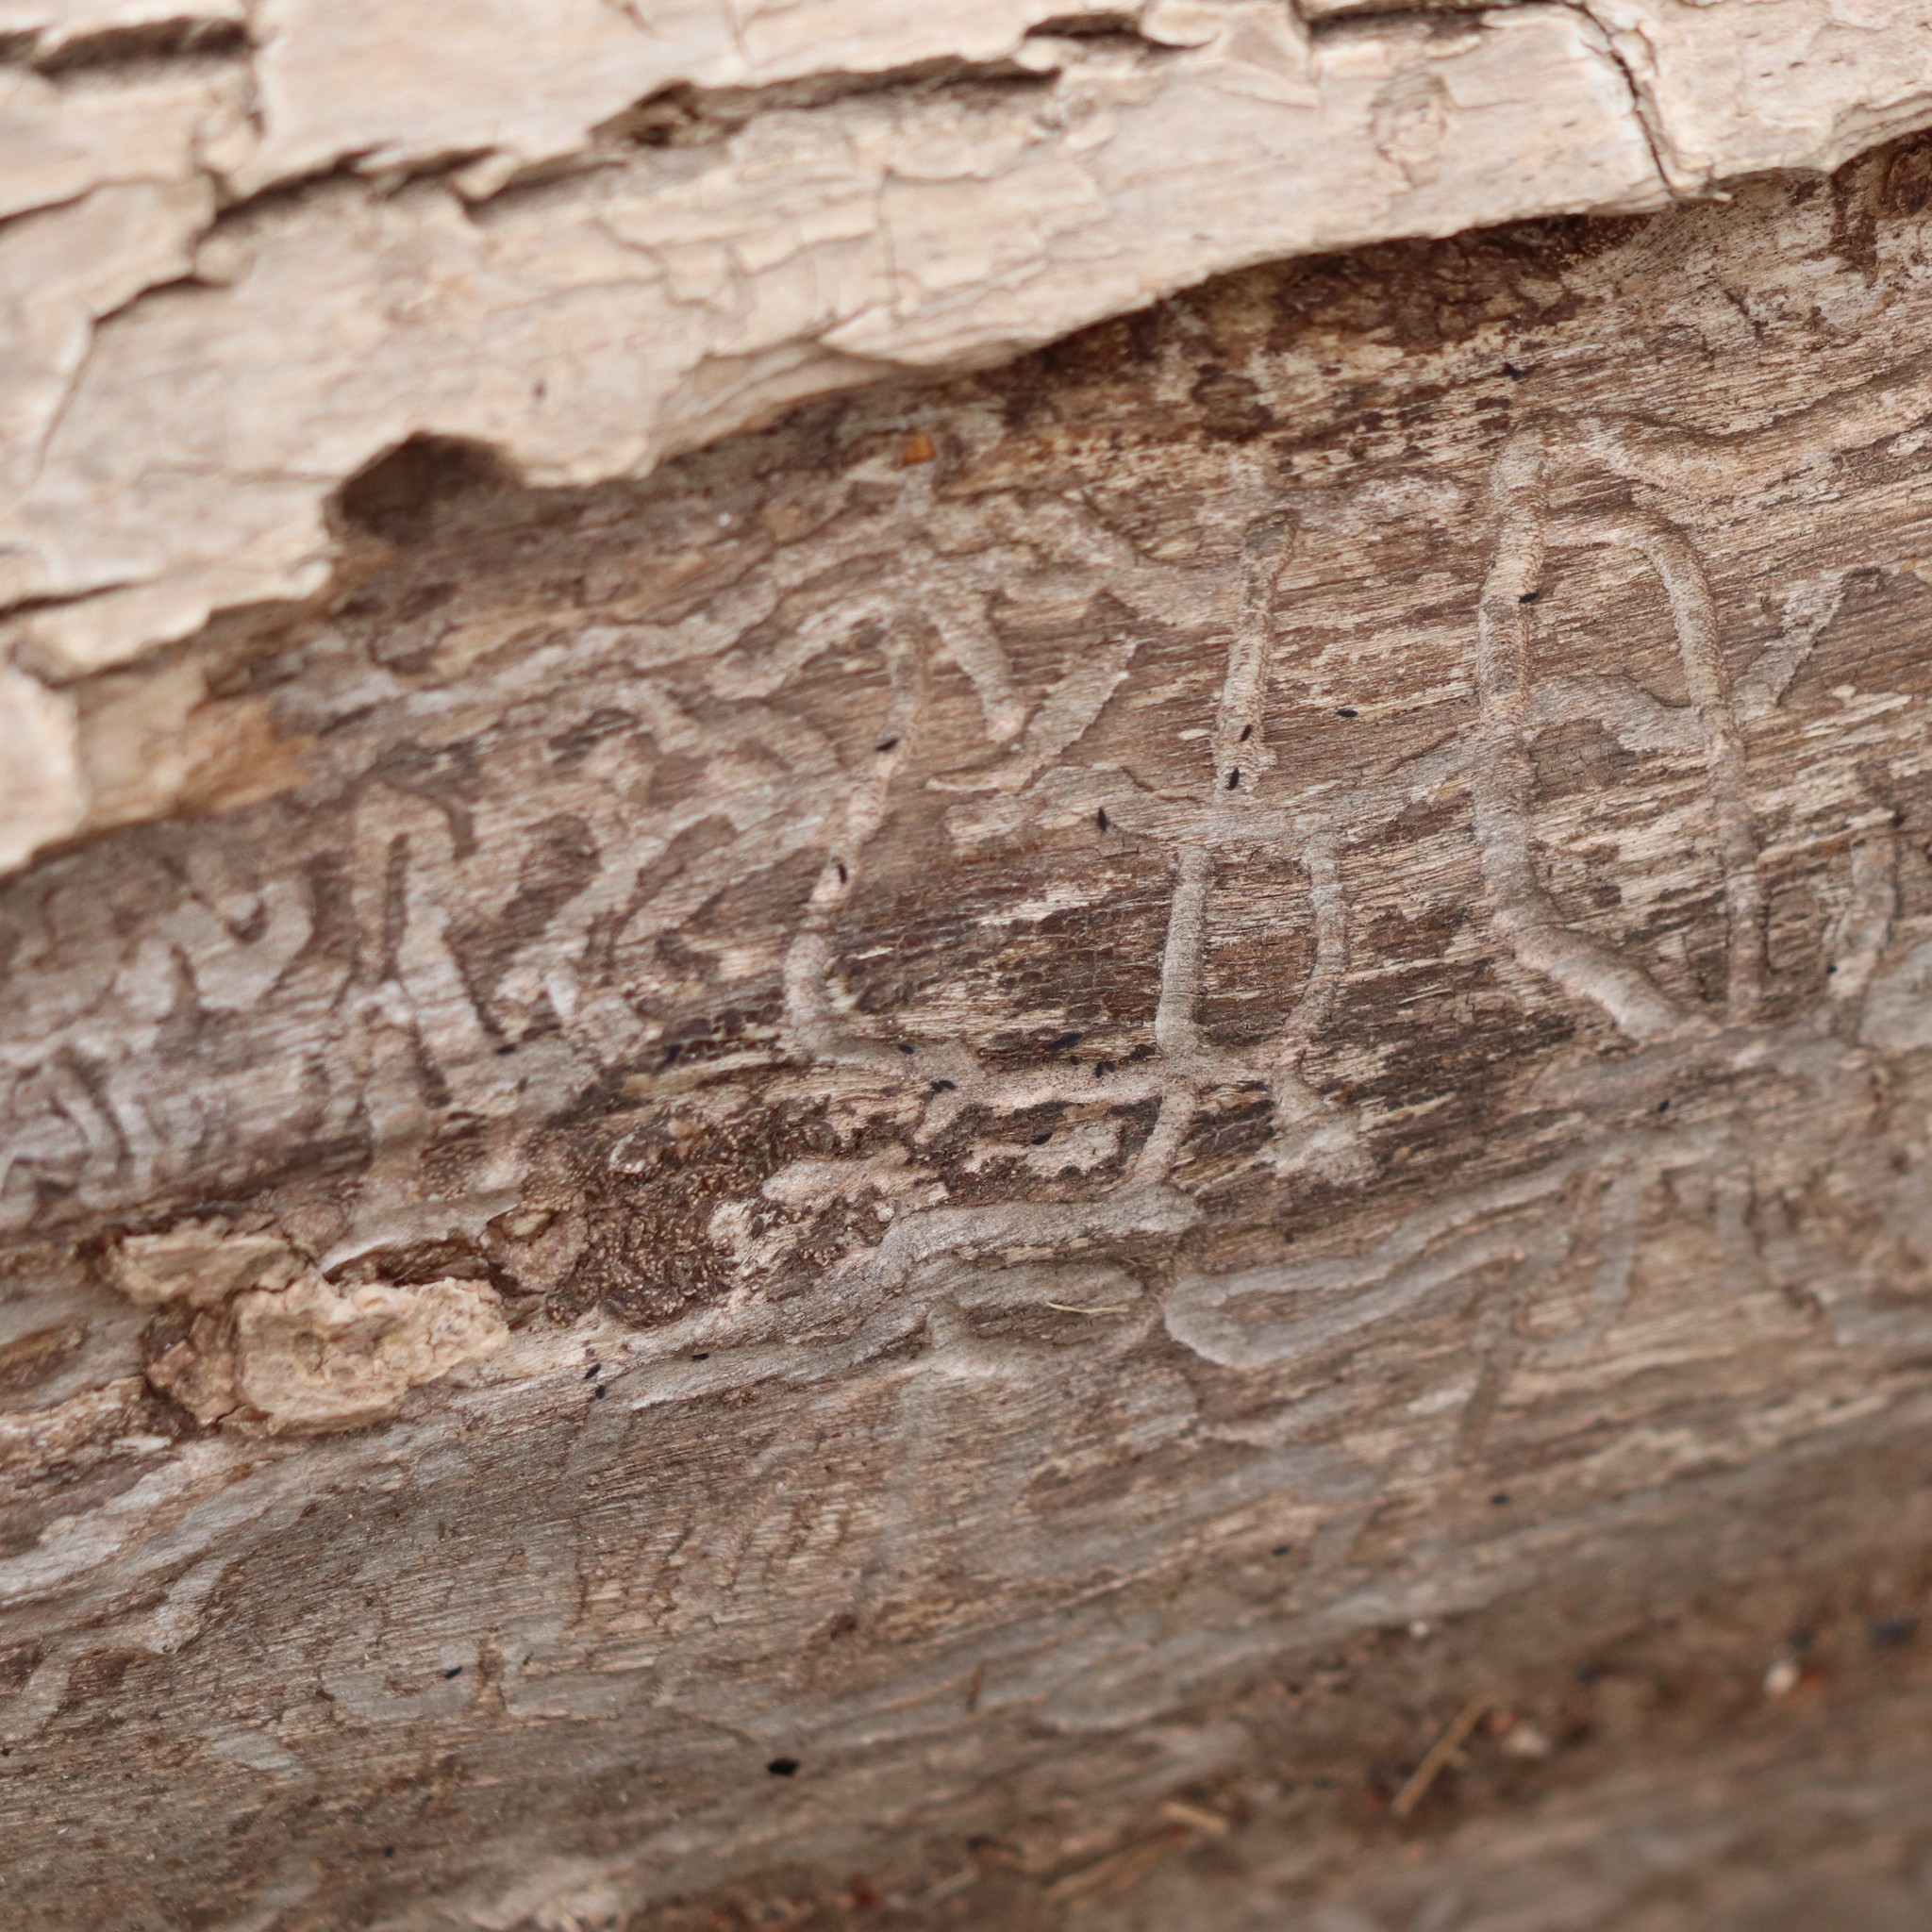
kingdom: Animalia
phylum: Arthropoda
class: Insecta
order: Coleoptera
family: Buprestidae
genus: Agrilus
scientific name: Agrilus planipennis
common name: Emerald ash borer
